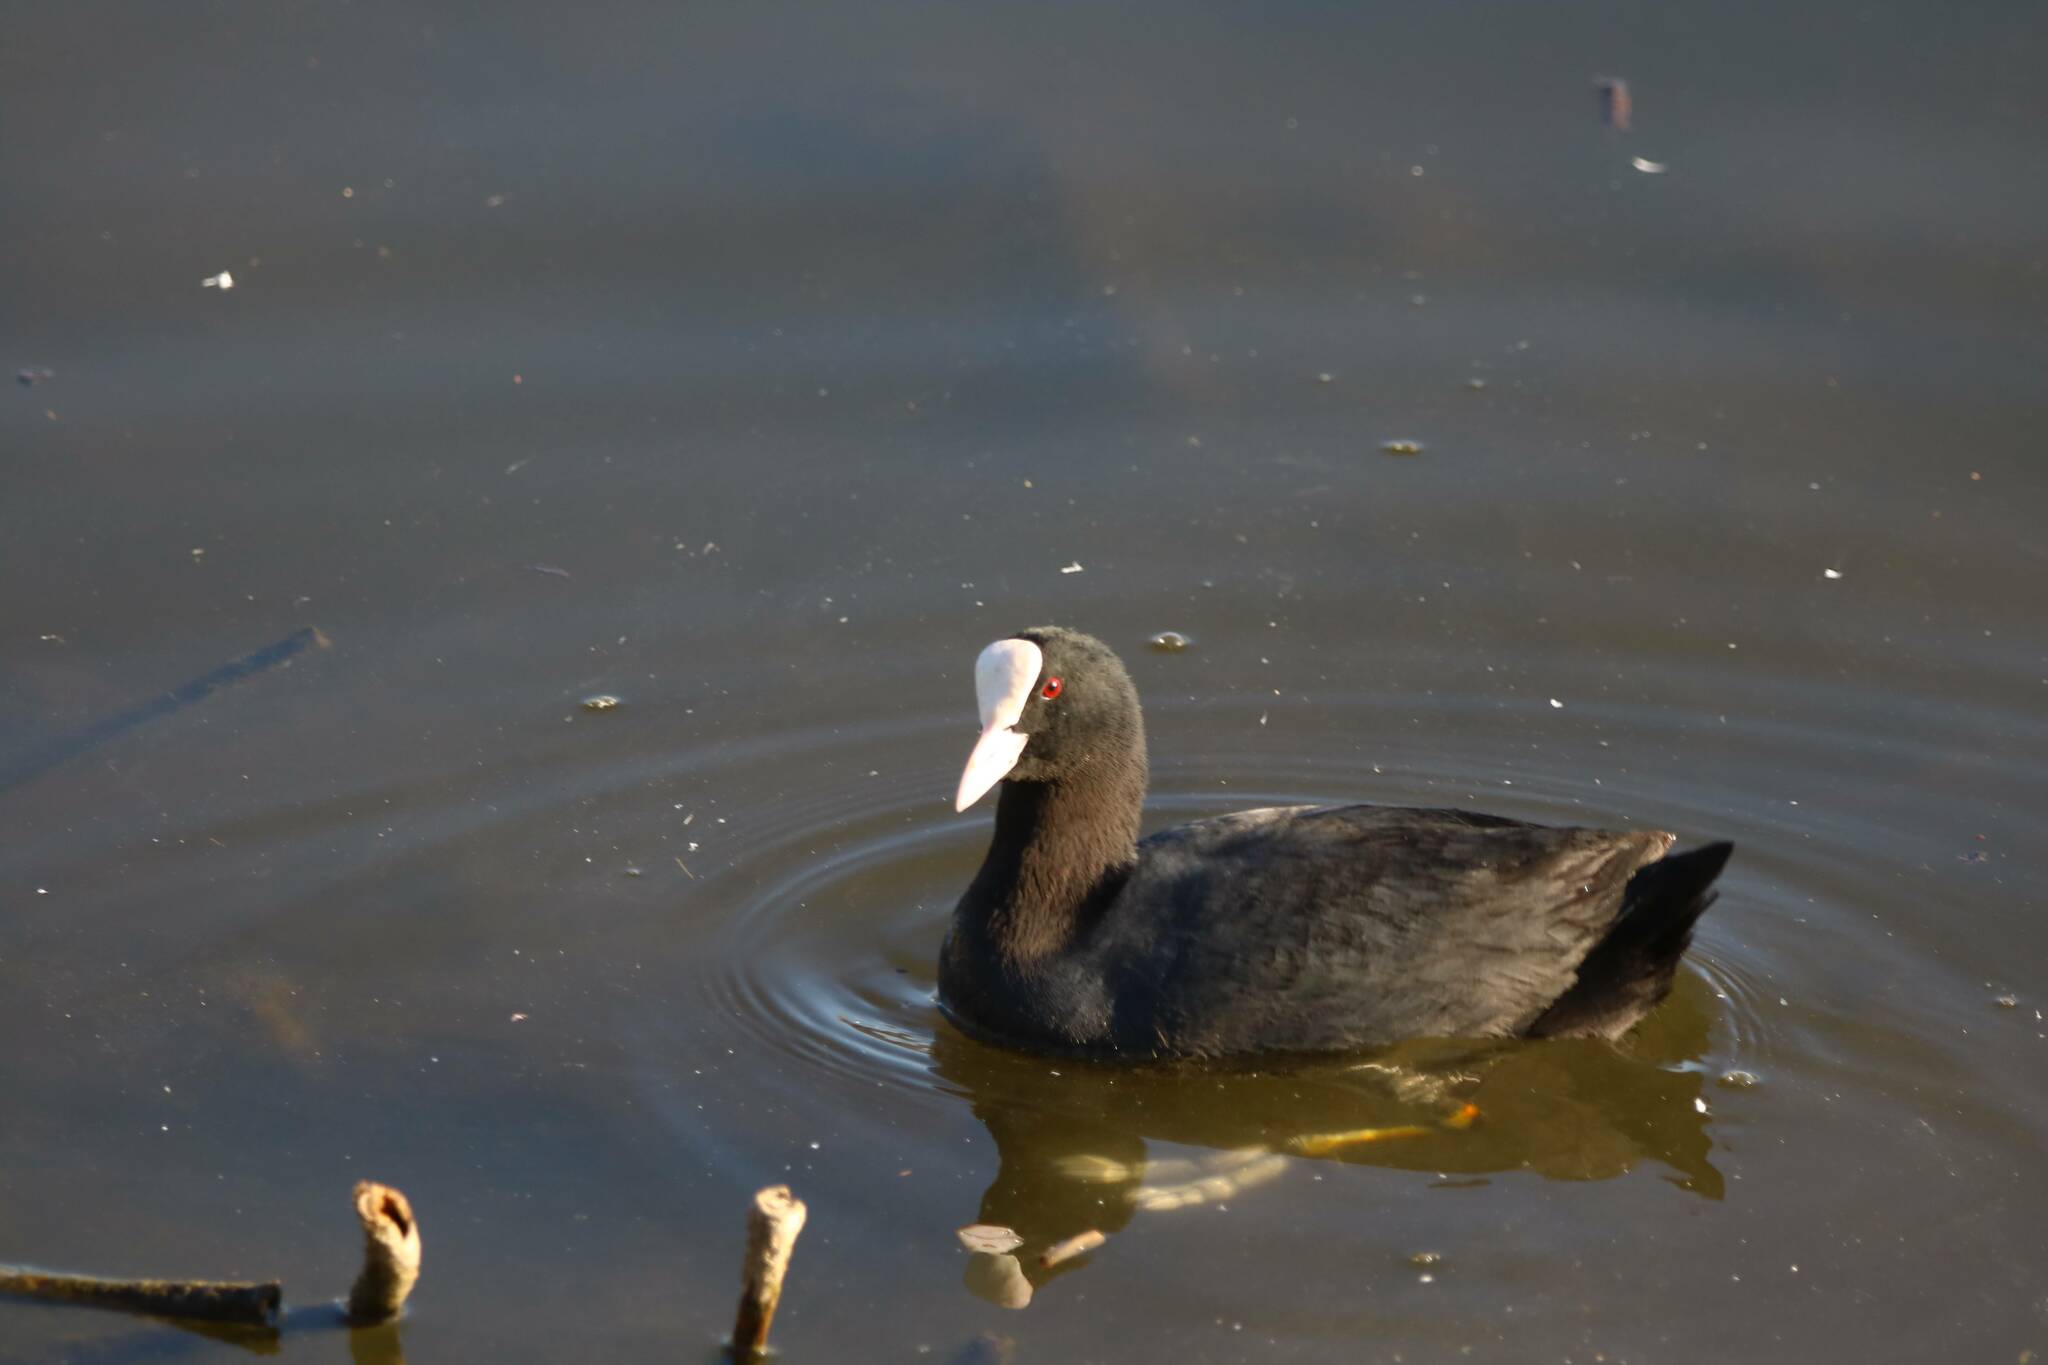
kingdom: Animalia
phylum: Chordata
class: Aves
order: Gruiformes
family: Rallidae
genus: Fulica
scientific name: Fulica atra
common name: Eurasian coot
